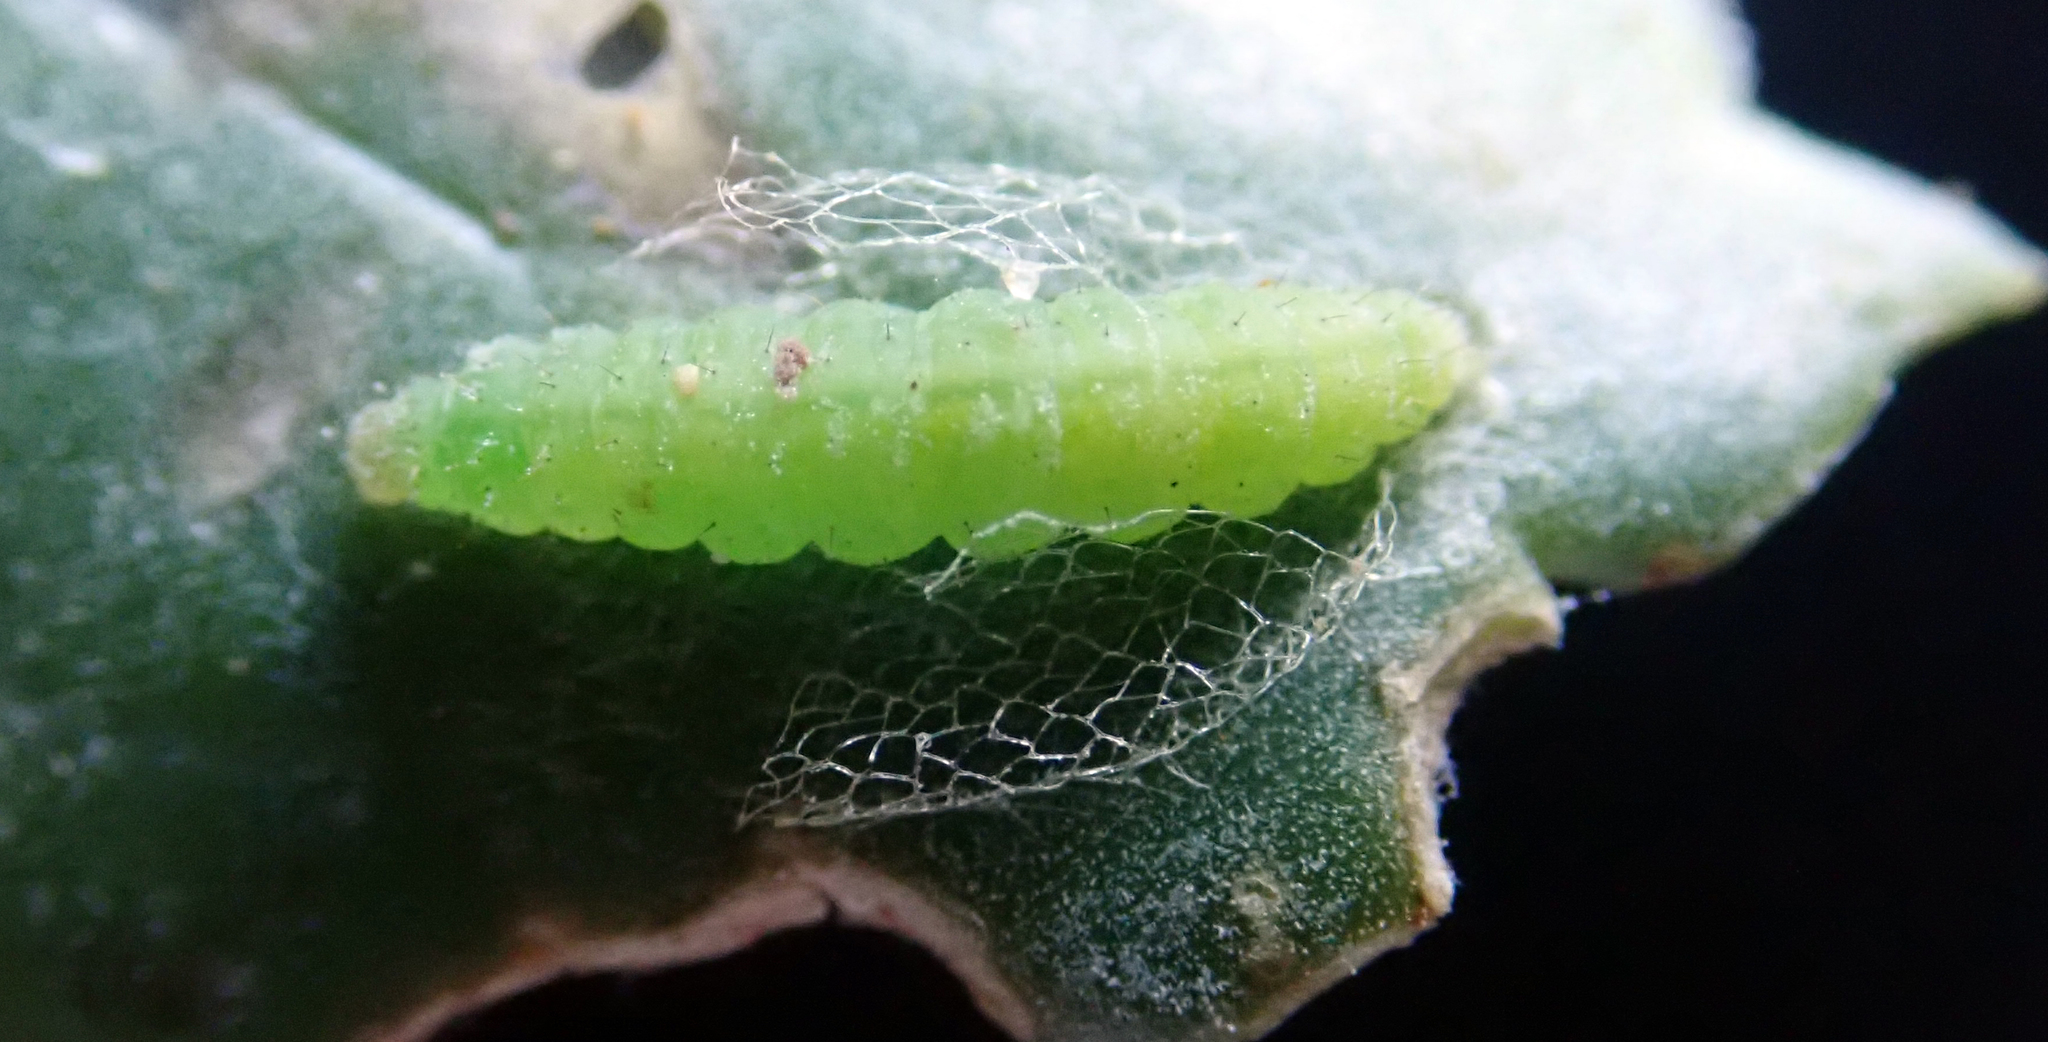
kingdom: Animalia
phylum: Arthropoda
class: Insecta
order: Lepidoptera
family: Plutellidae
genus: Plutella
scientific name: Plutella xylostella
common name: Diamond-back moth
